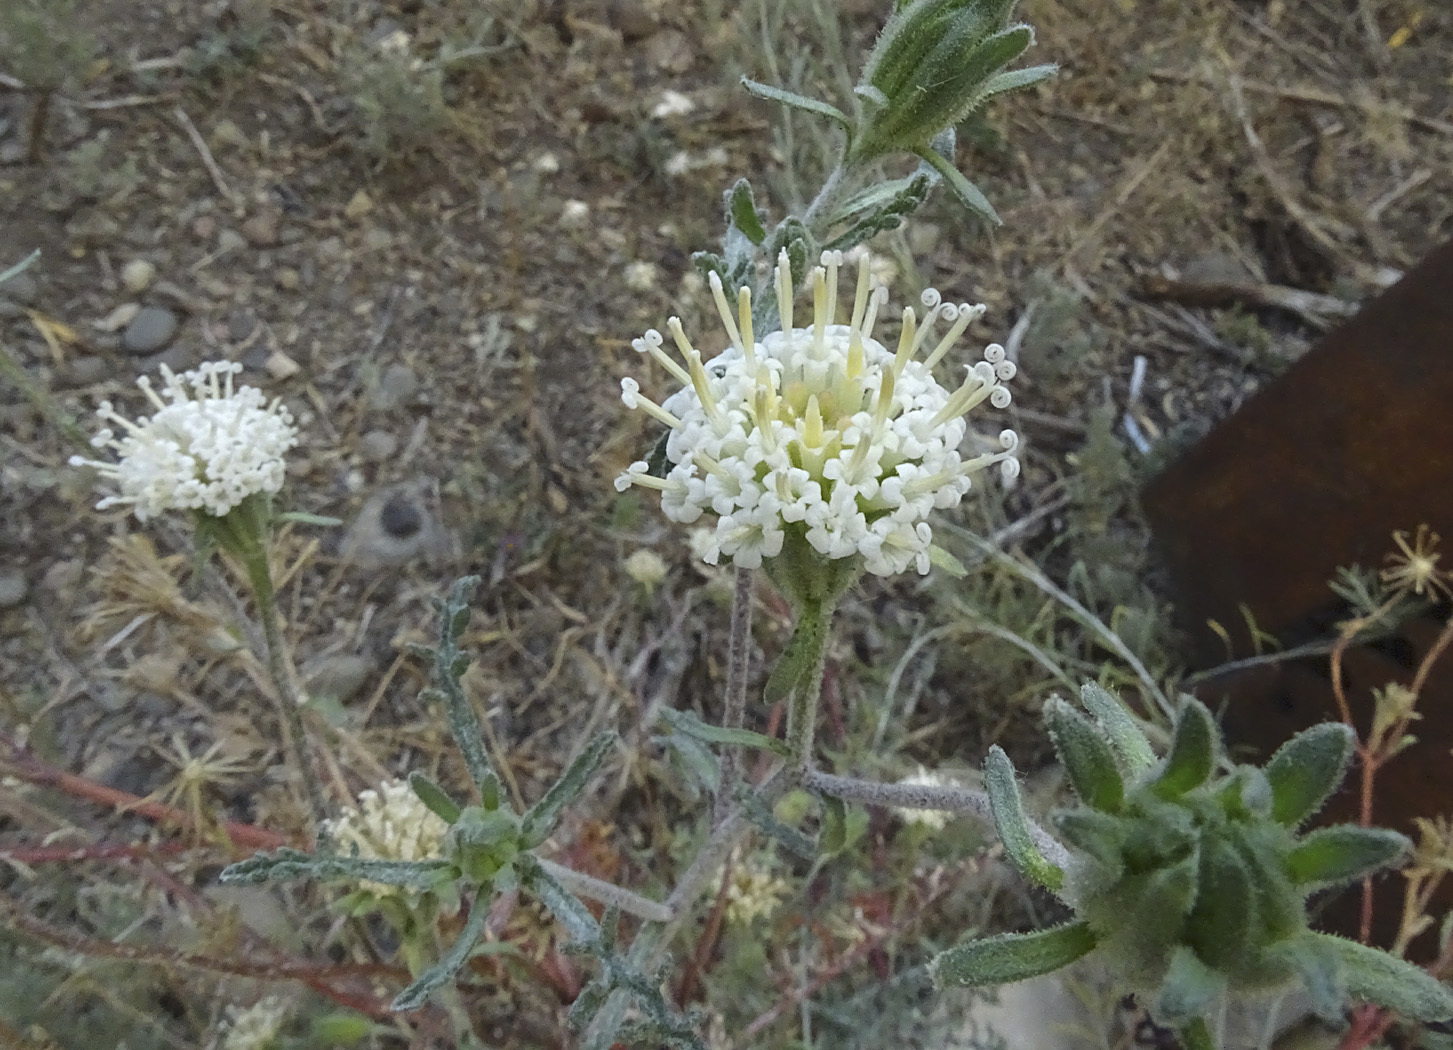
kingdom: Plantae
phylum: Tracheophyta
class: Magnoliopsida
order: Asterales
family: Asteraceae
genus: Chaenactis
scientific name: Chaenactis douglasii
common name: Hoary pincushion
